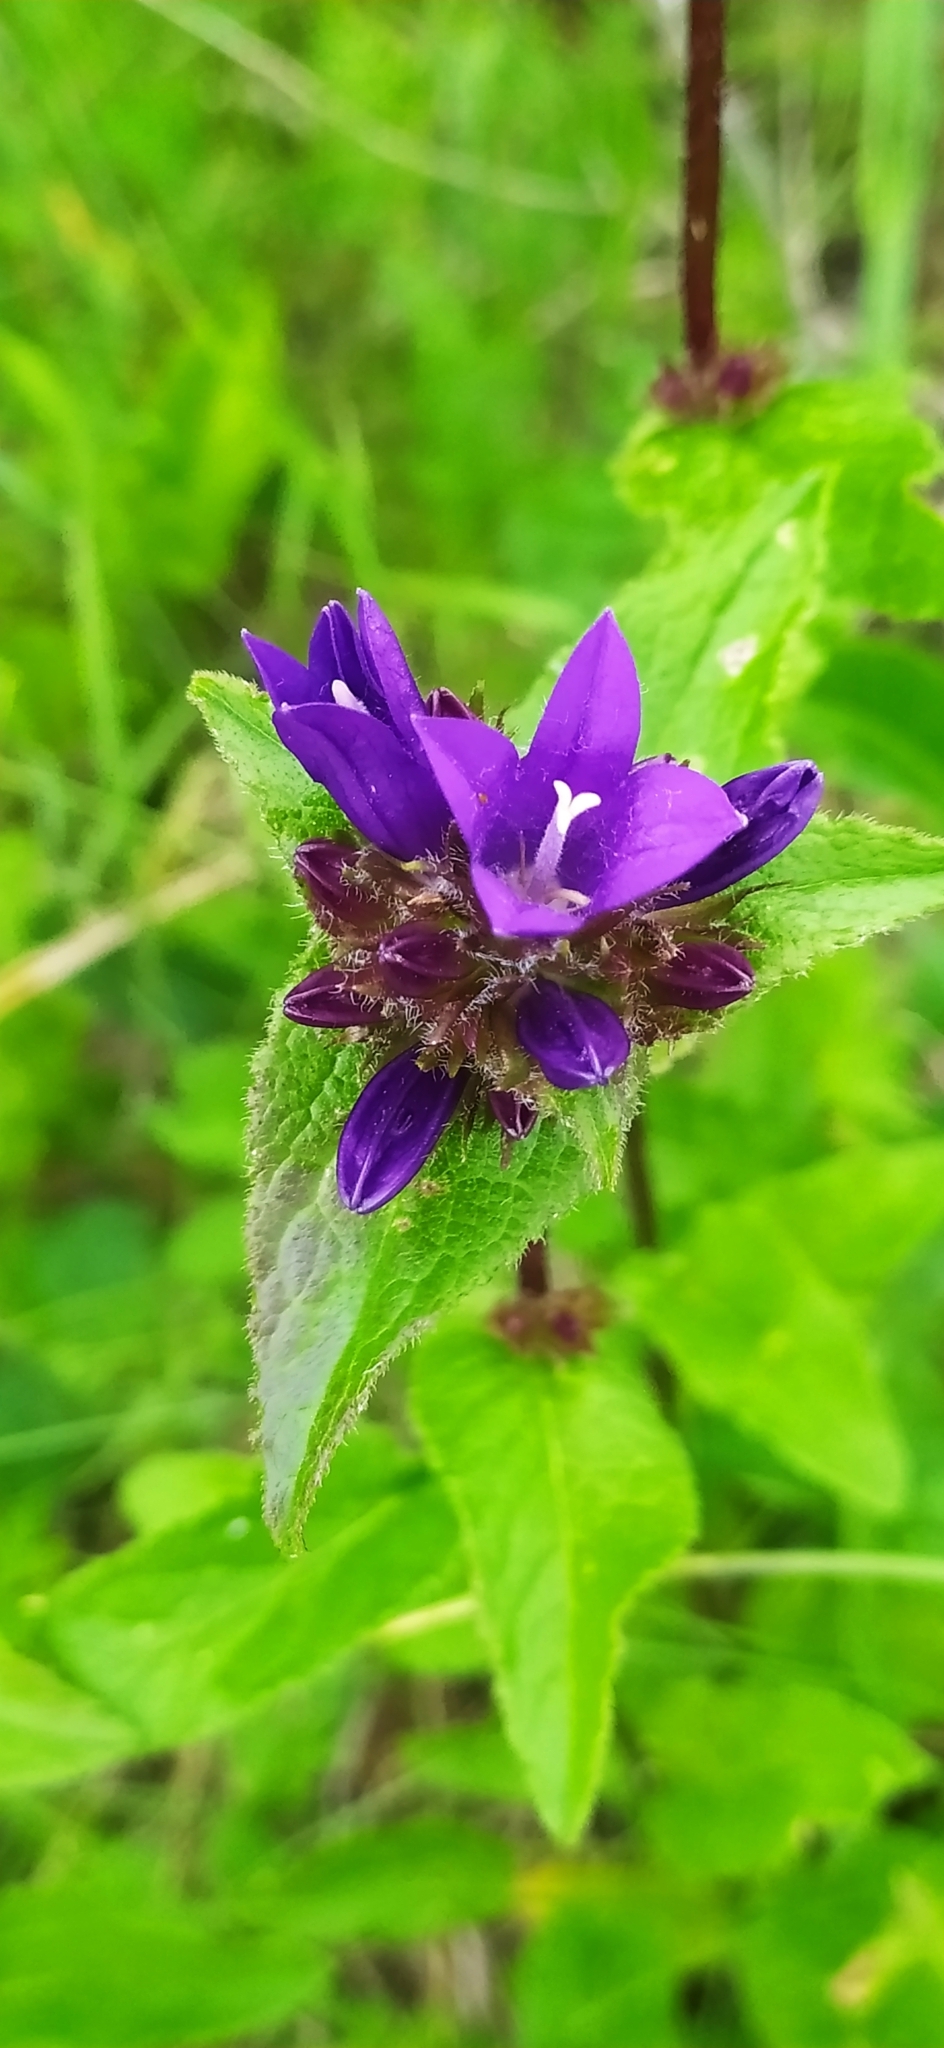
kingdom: Plantae
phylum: Tracheophyta
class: Magnoliopsida
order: Asterales
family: Campanulaceae
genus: Campanula
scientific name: Campanula glomerata
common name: Clustered bellflower
